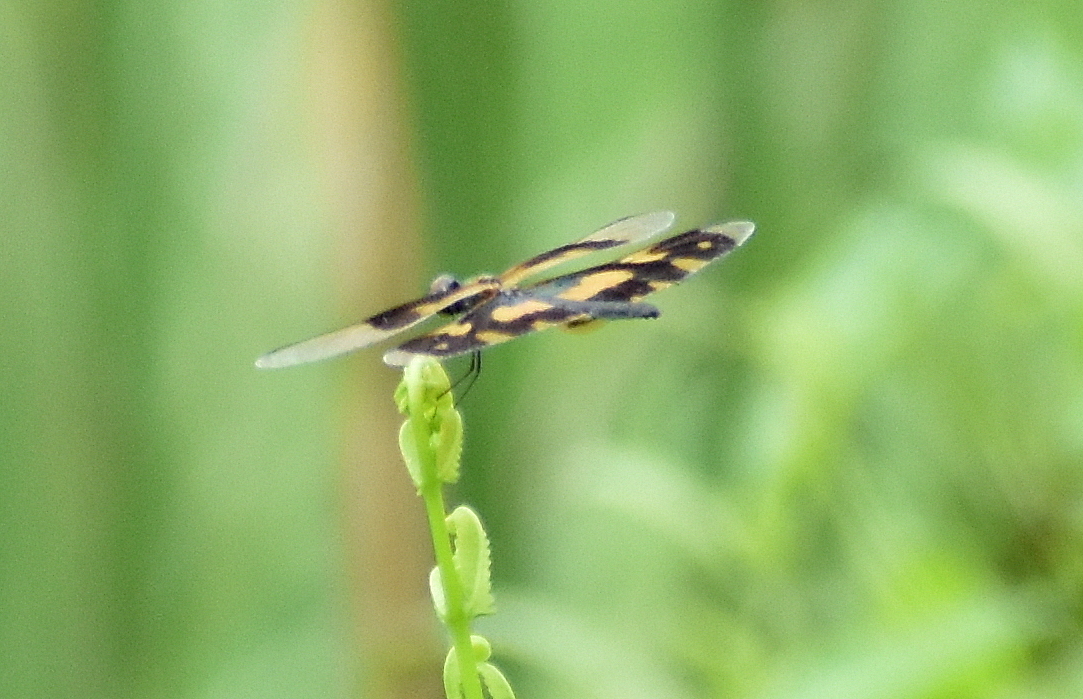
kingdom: Animalia
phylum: Arthropoda
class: Insecta
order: Odonata
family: Libellulidae
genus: Rhyothemis
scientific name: Rhyothemis variegata
